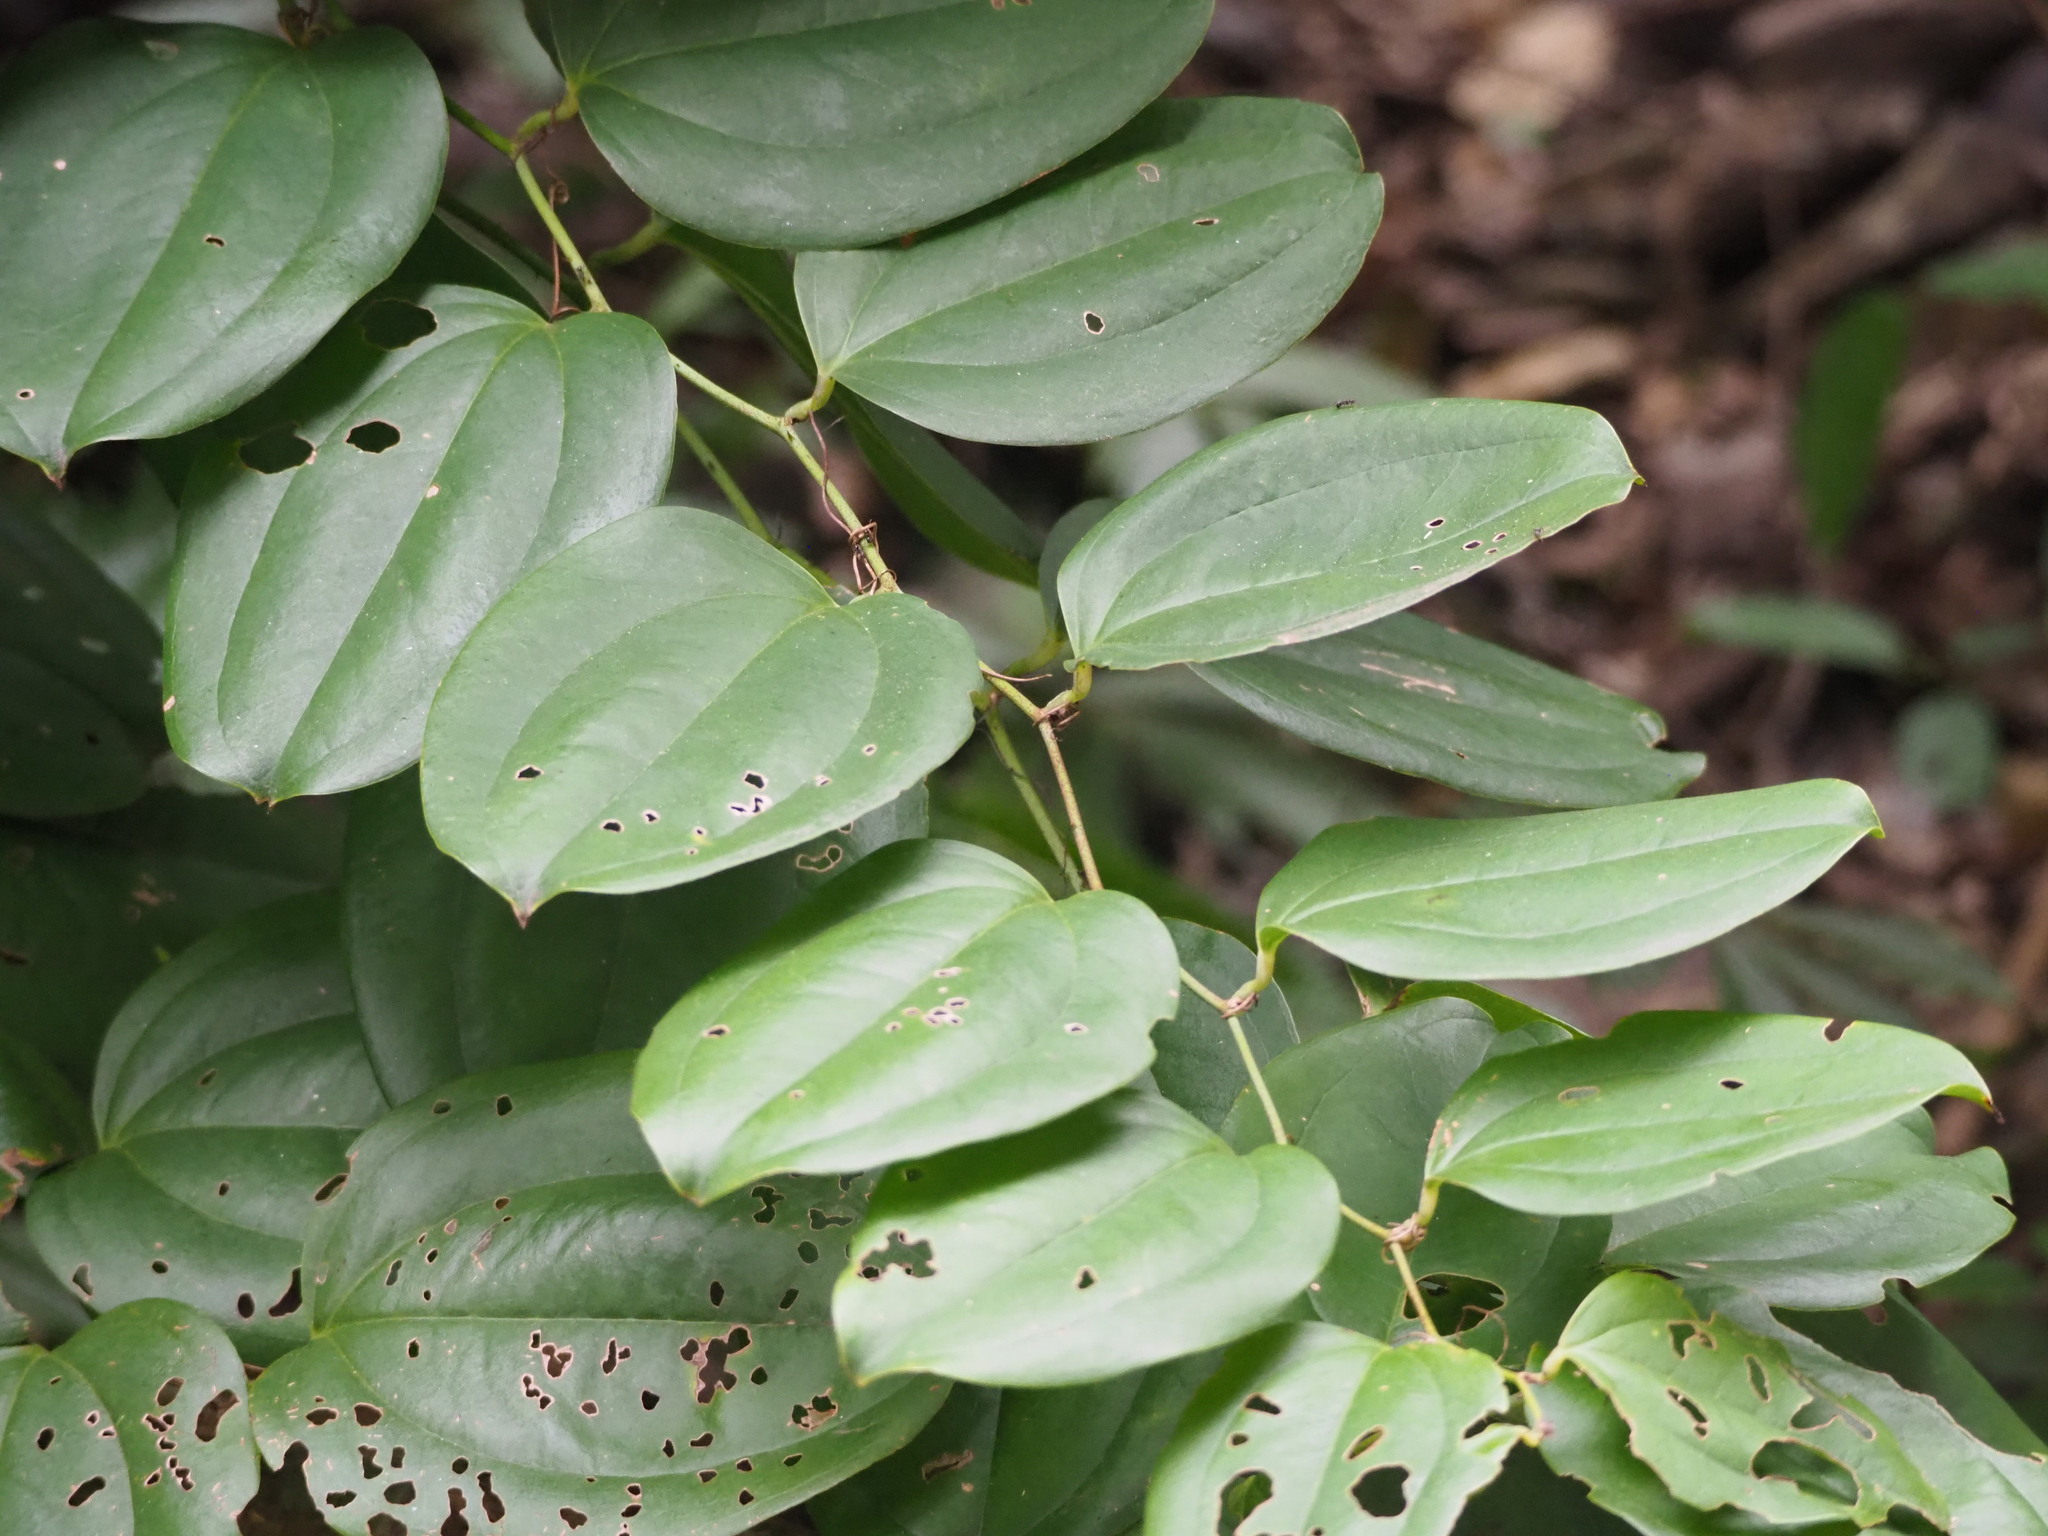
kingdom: Plantae
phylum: Tracheophyta
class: Liliopsida
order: Liliales
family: Smilacaceae
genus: Smilax
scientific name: Smilax bracteata
